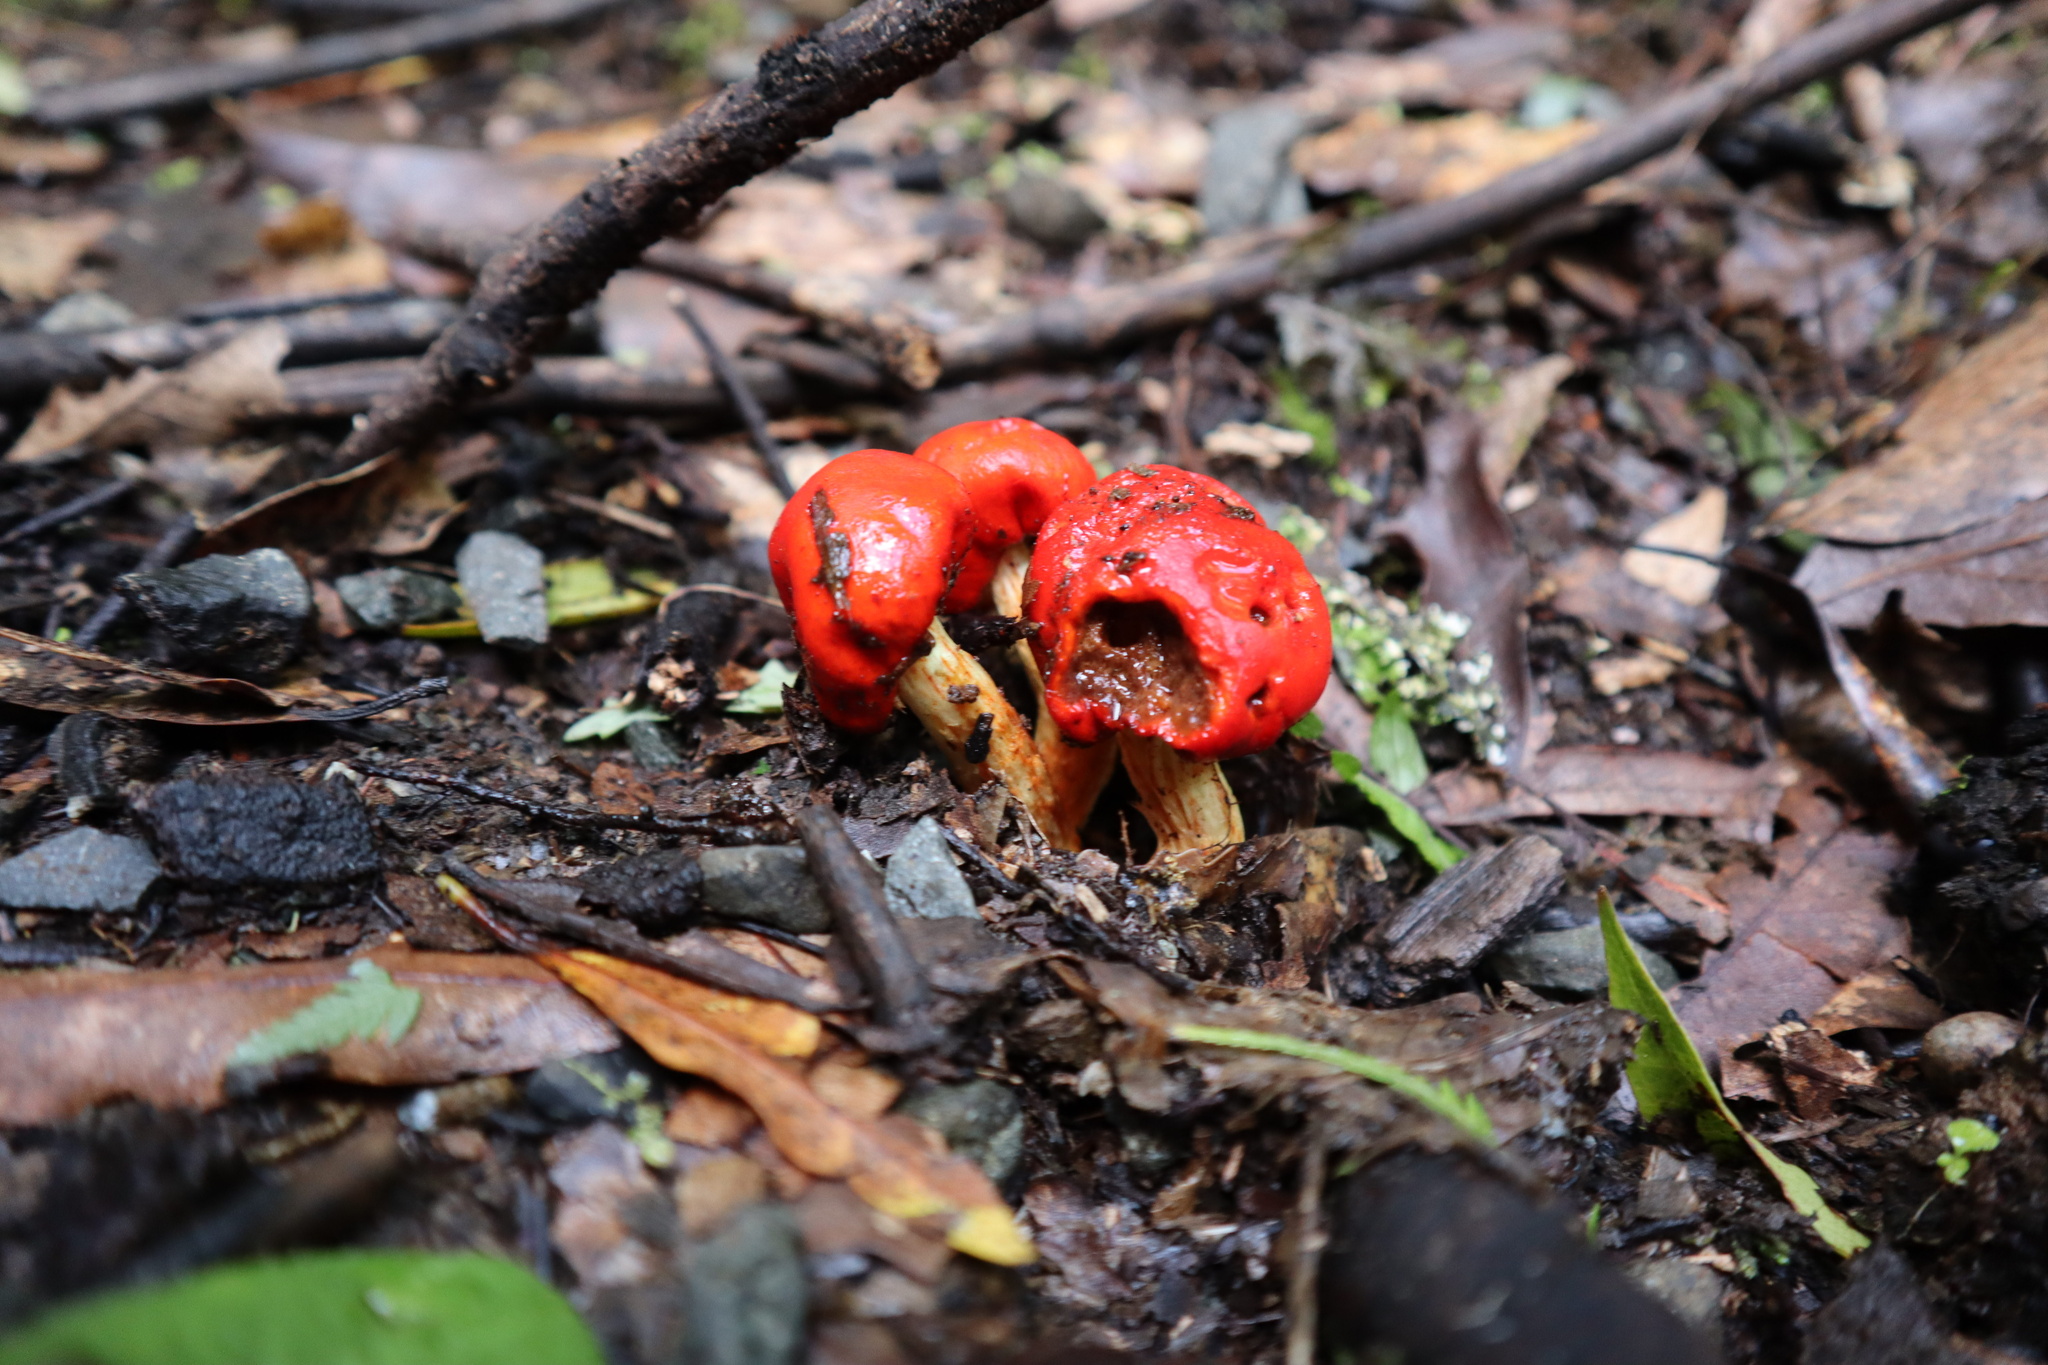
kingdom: Fungi
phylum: Basidiomycota
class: Agaricomycetes
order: Agaricales
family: Strophariaceae
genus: Leratiomyces
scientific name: Leratiomyces erythrocephalus
